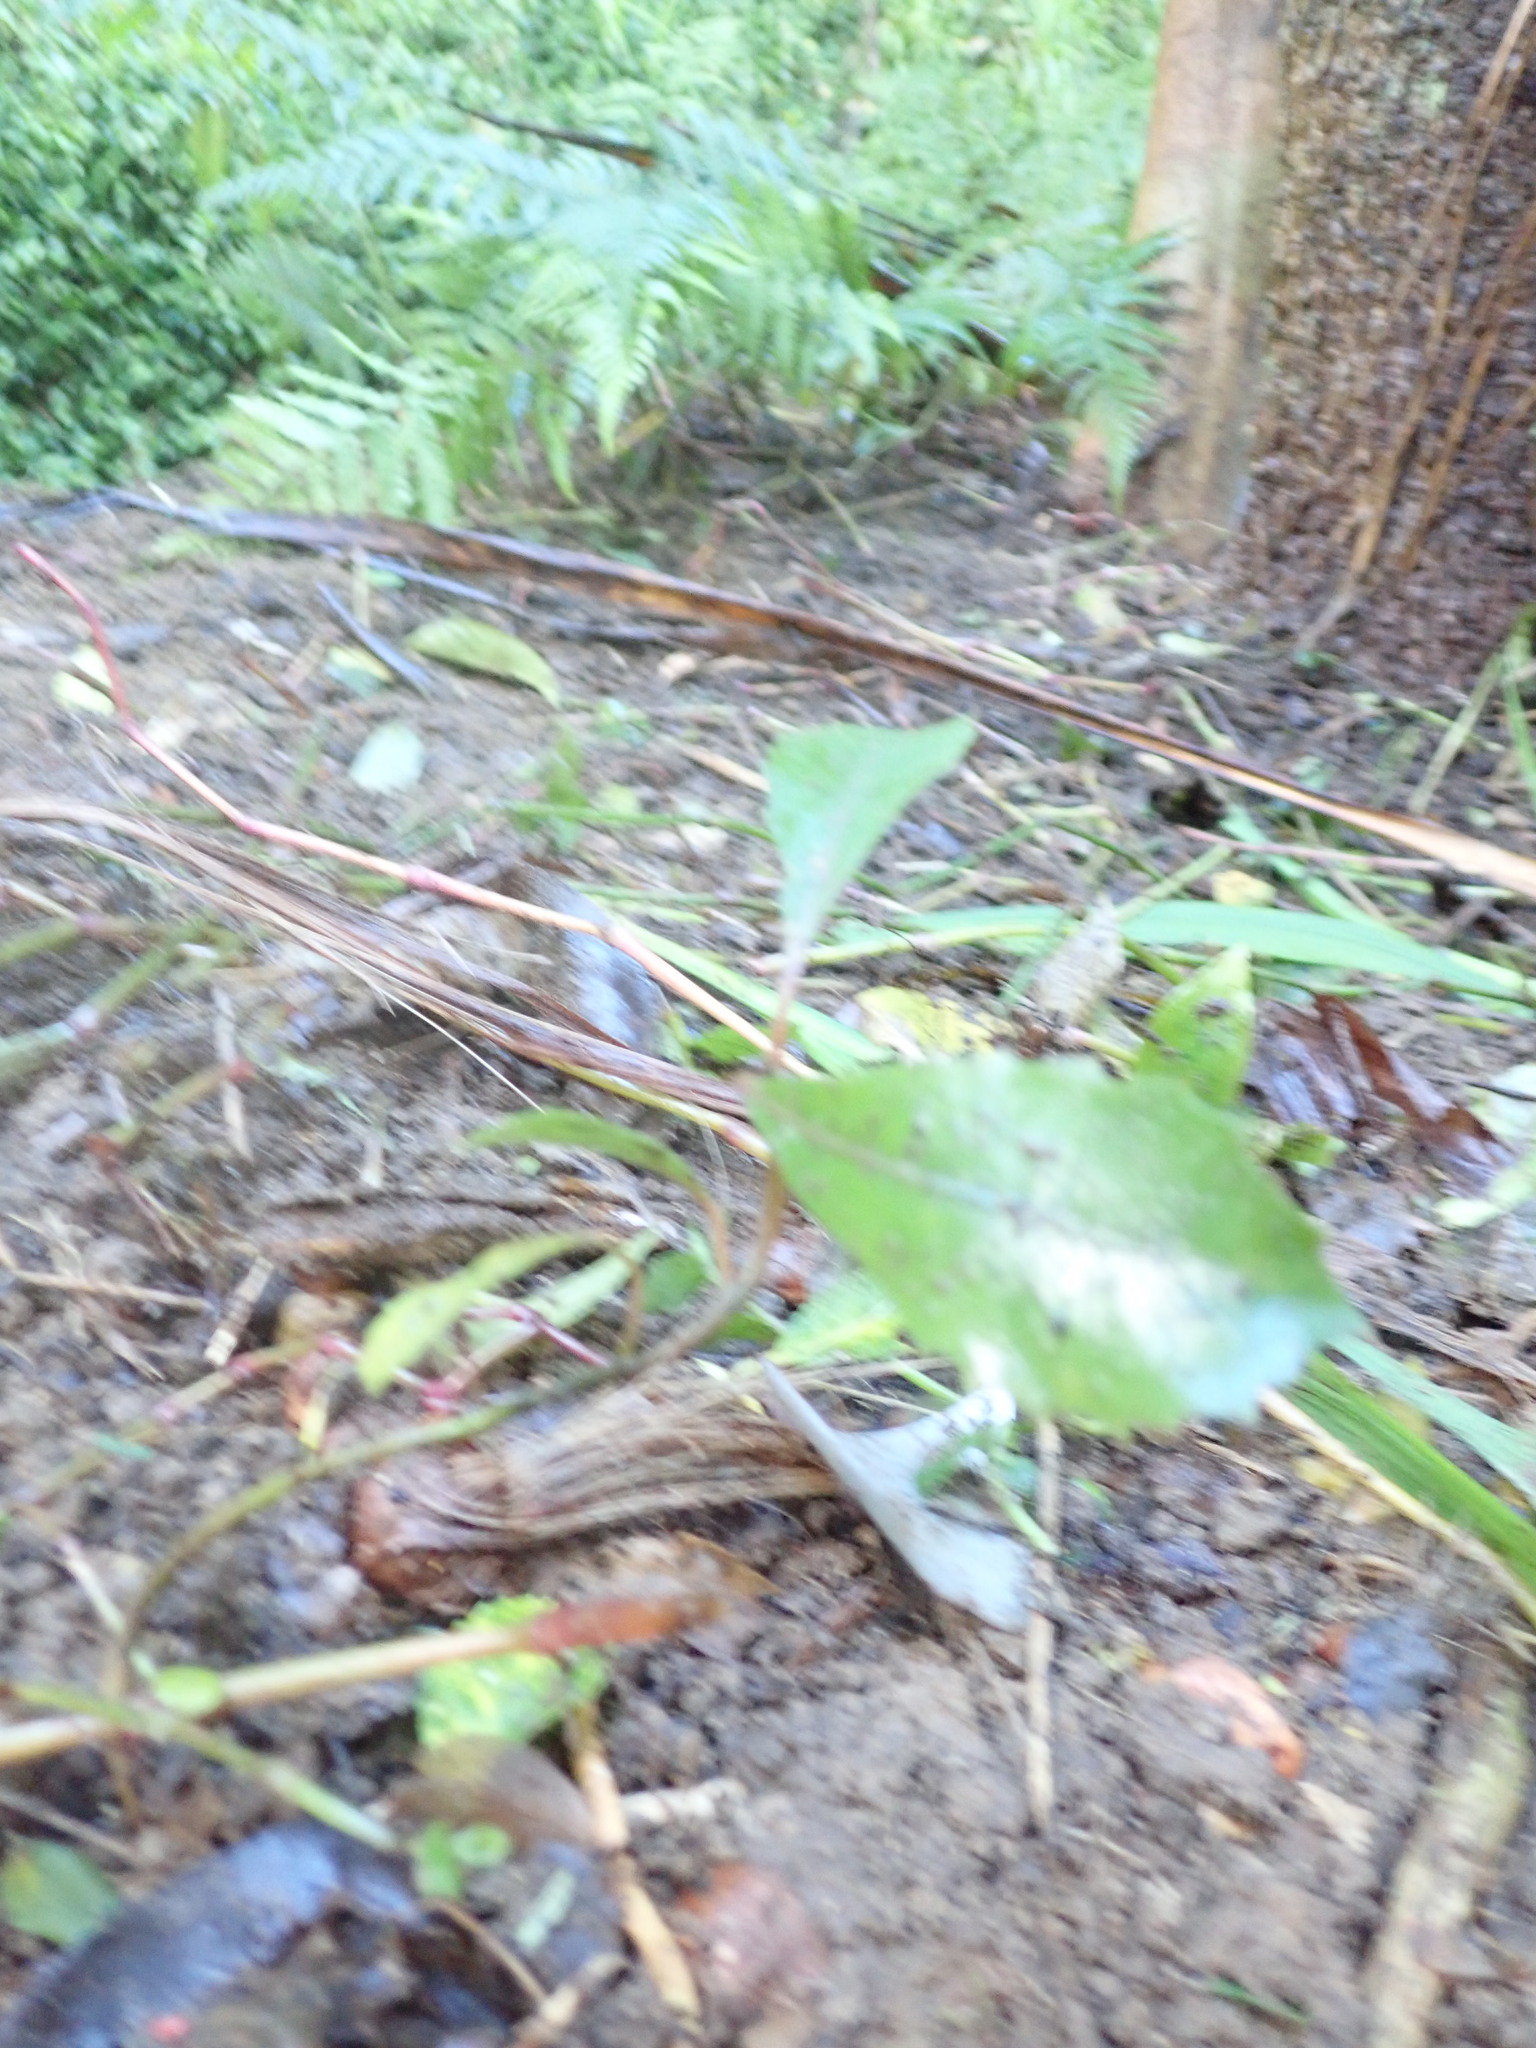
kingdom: Plantae
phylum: Tracheophyta
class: Magnoliopsida
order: Laurales
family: Monimiaceae
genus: Hedycarya
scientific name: Hedycarya arborea
